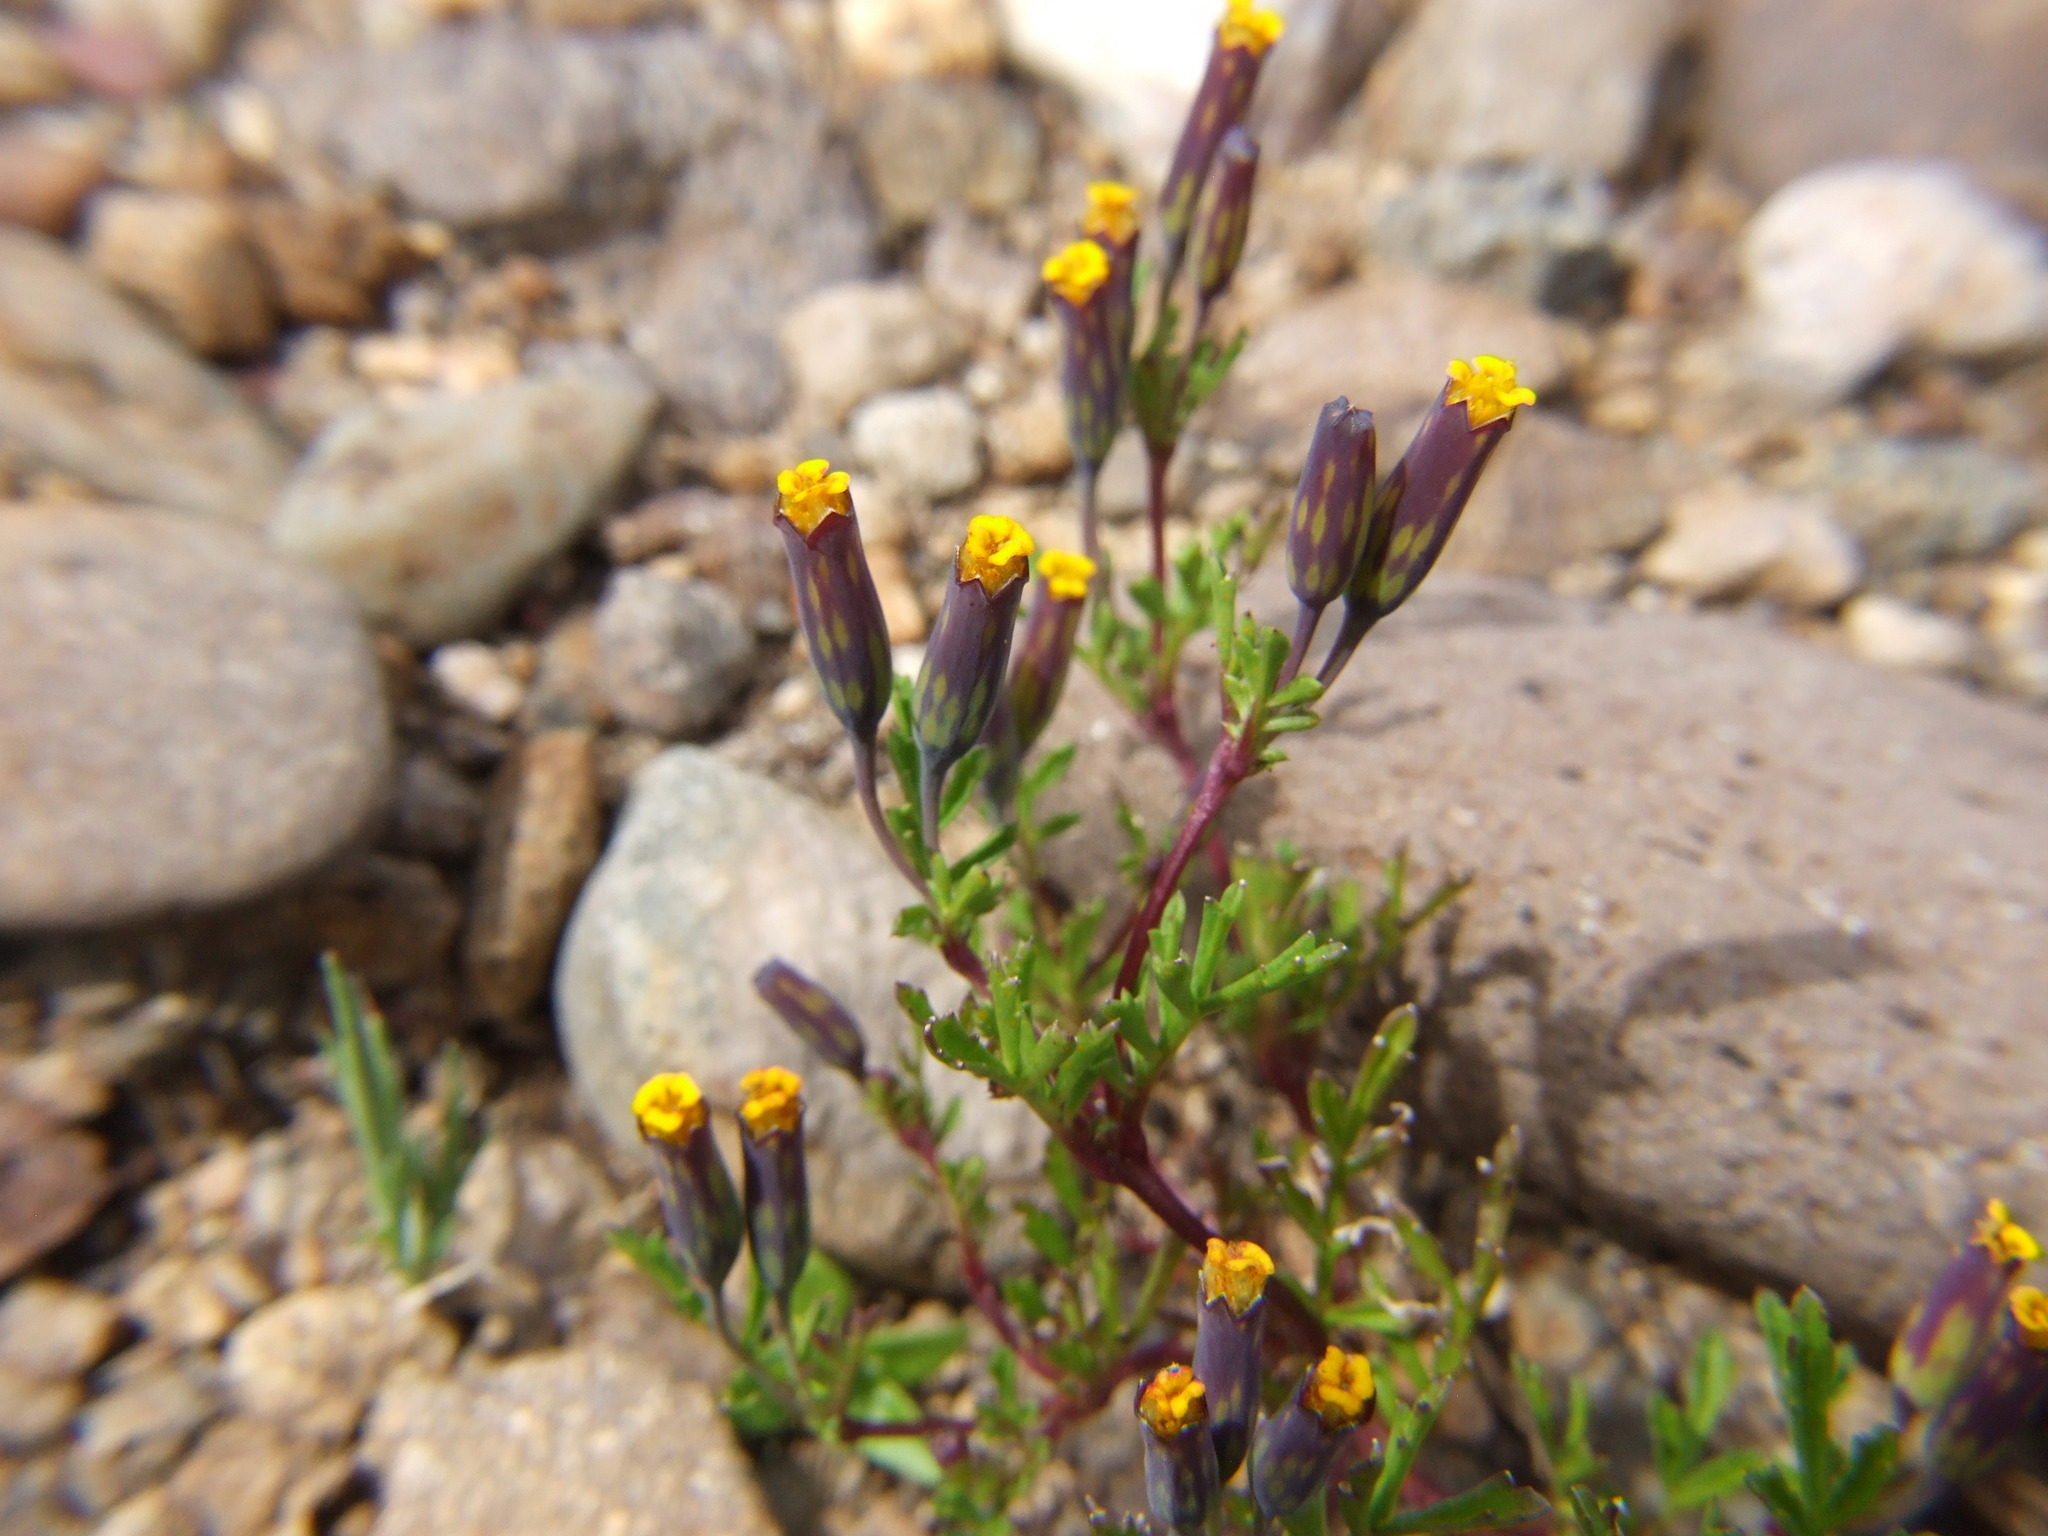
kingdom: Plantae
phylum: Tracheophyta
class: Magnoliopsida
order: Asterales
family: Asteraceae
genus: Tagetes
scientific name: Tagetes multiflora
